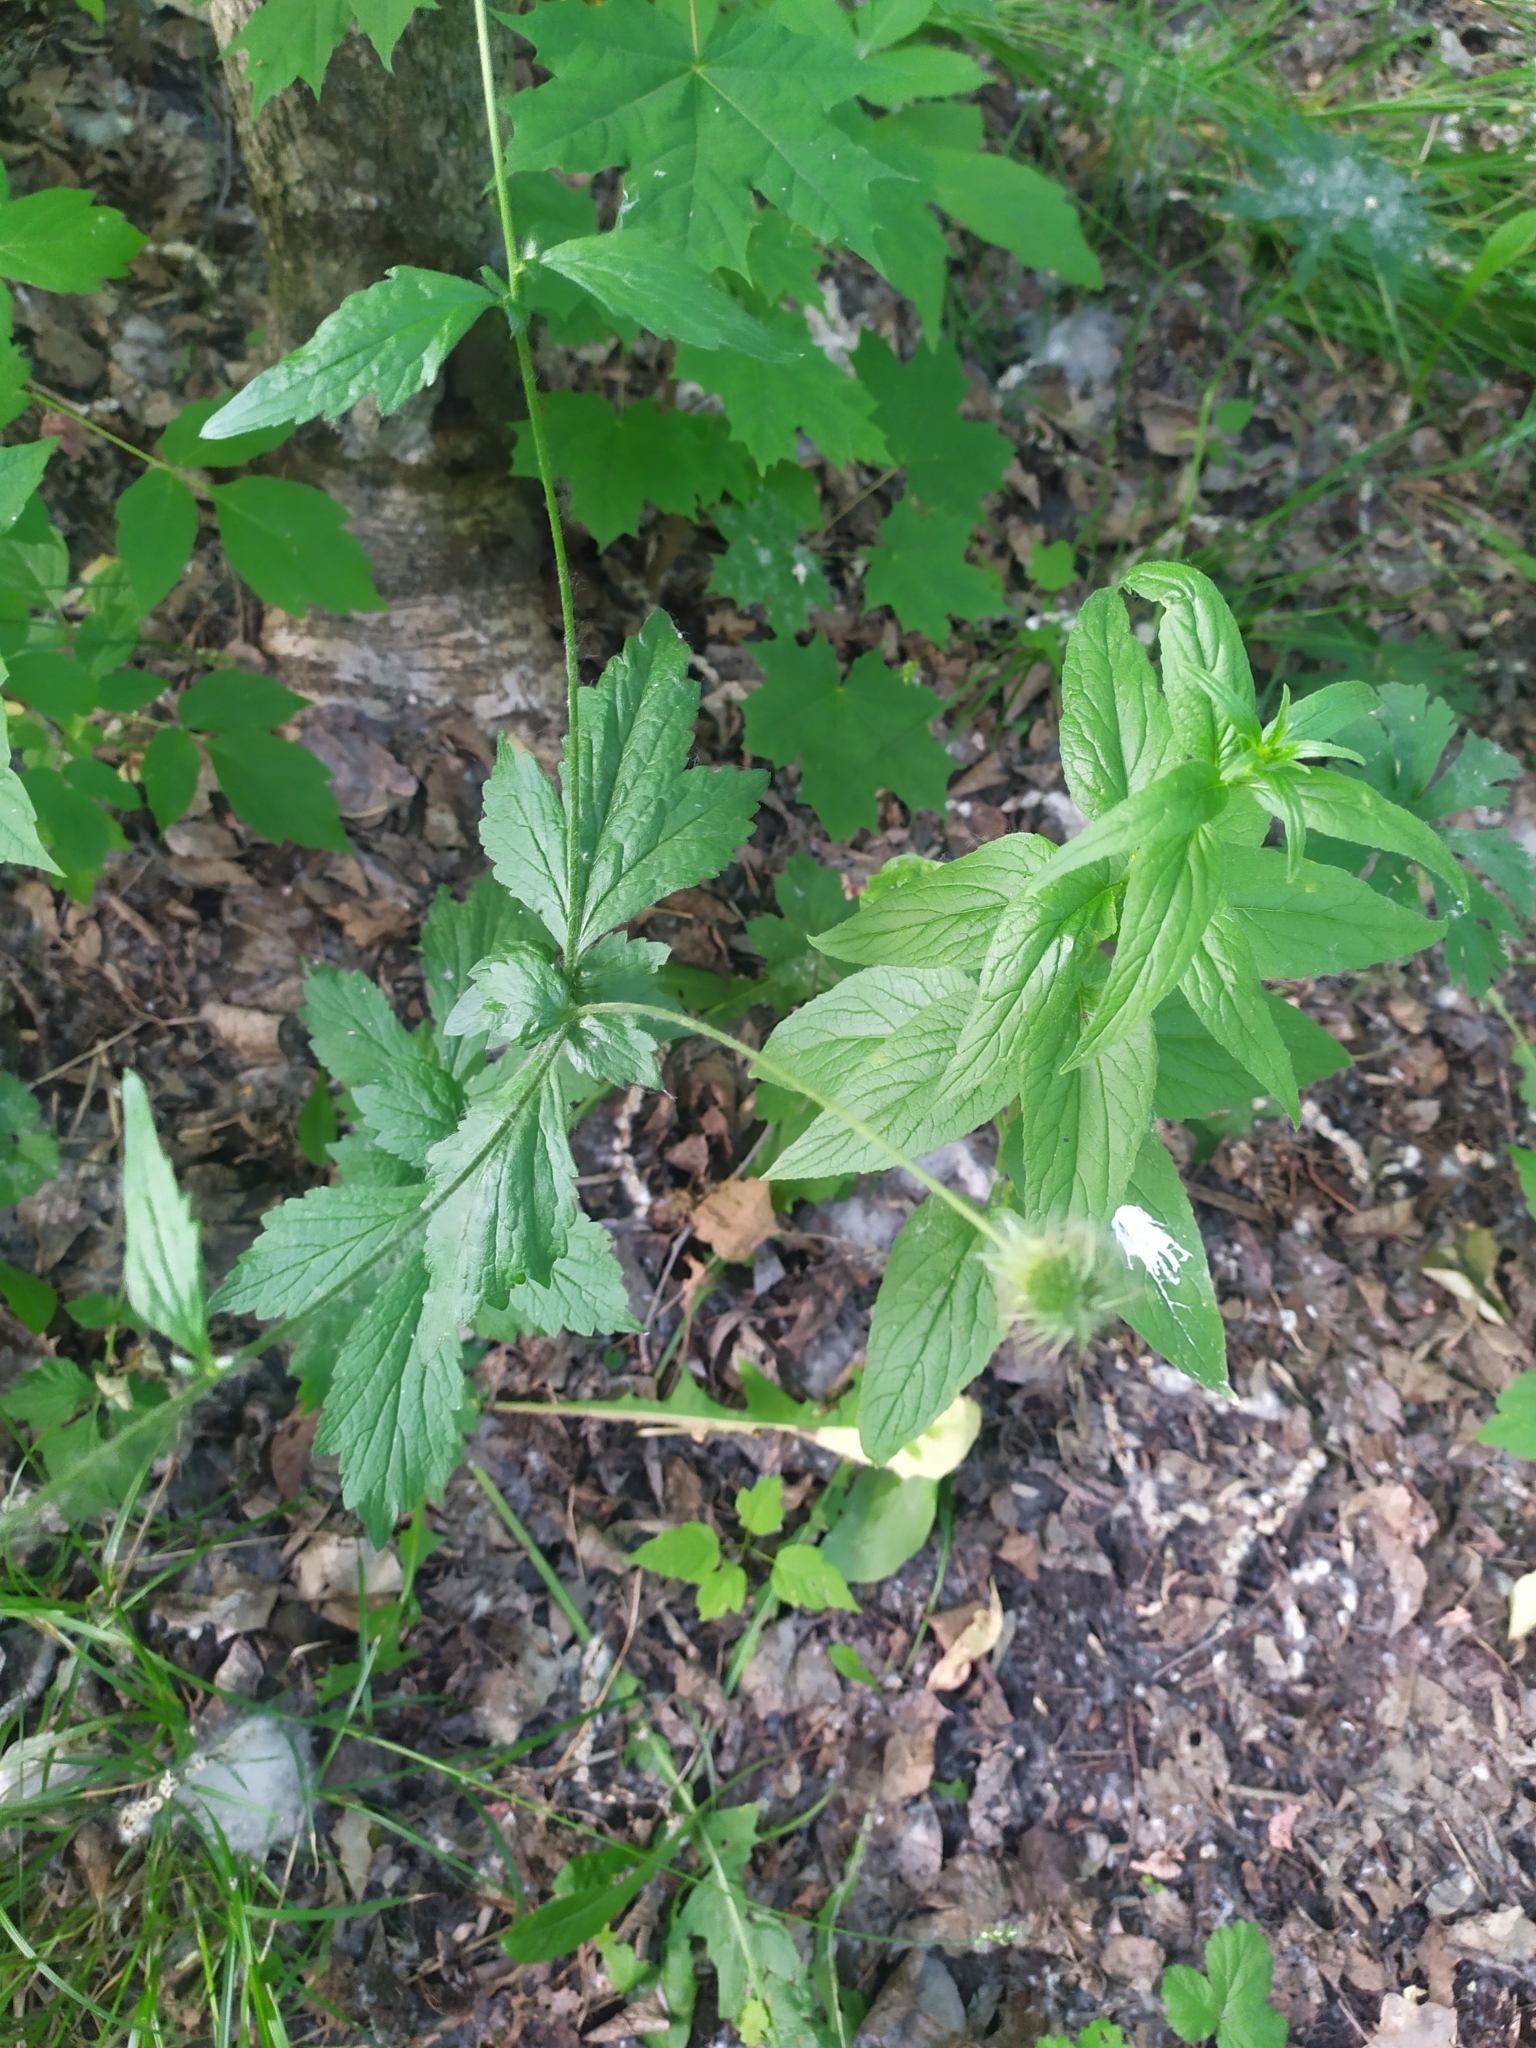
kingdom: Plantae
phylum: Tracheophyta
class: Magnoliopsida
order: Rosales
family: Rosaceae
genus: Geum
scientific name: Geum urbanum
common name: Wood avens
